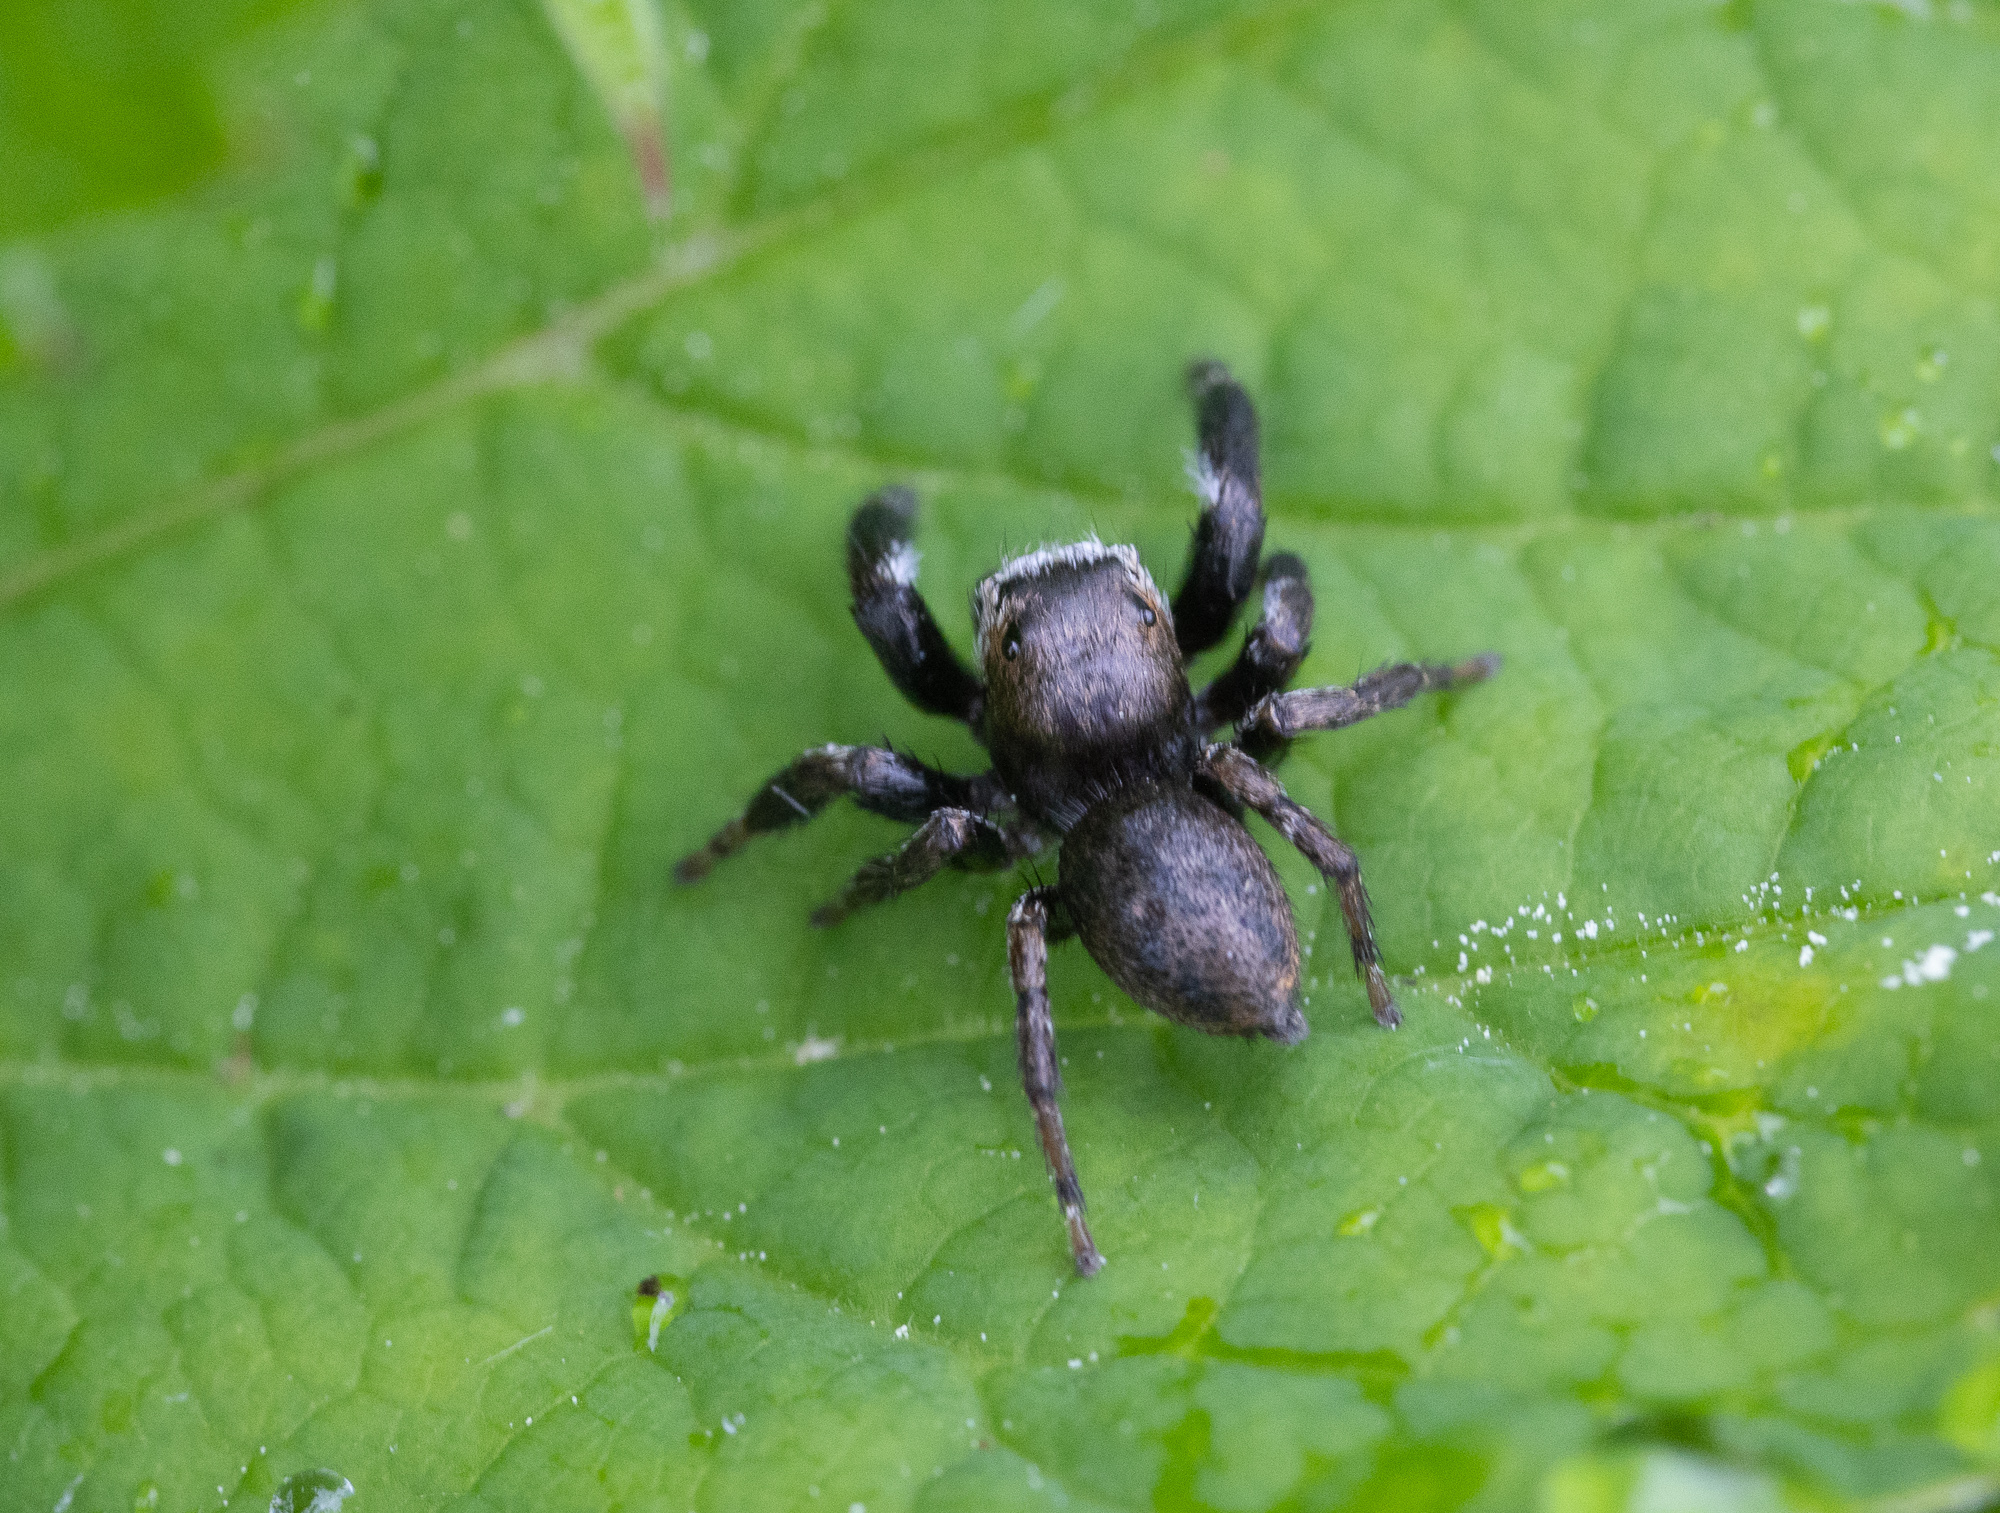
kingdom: Animalia
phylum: Arthropoda
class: Arachnida
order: Araneae
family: Salticidae
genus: Evarcha
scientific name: Evarcha arcuata
